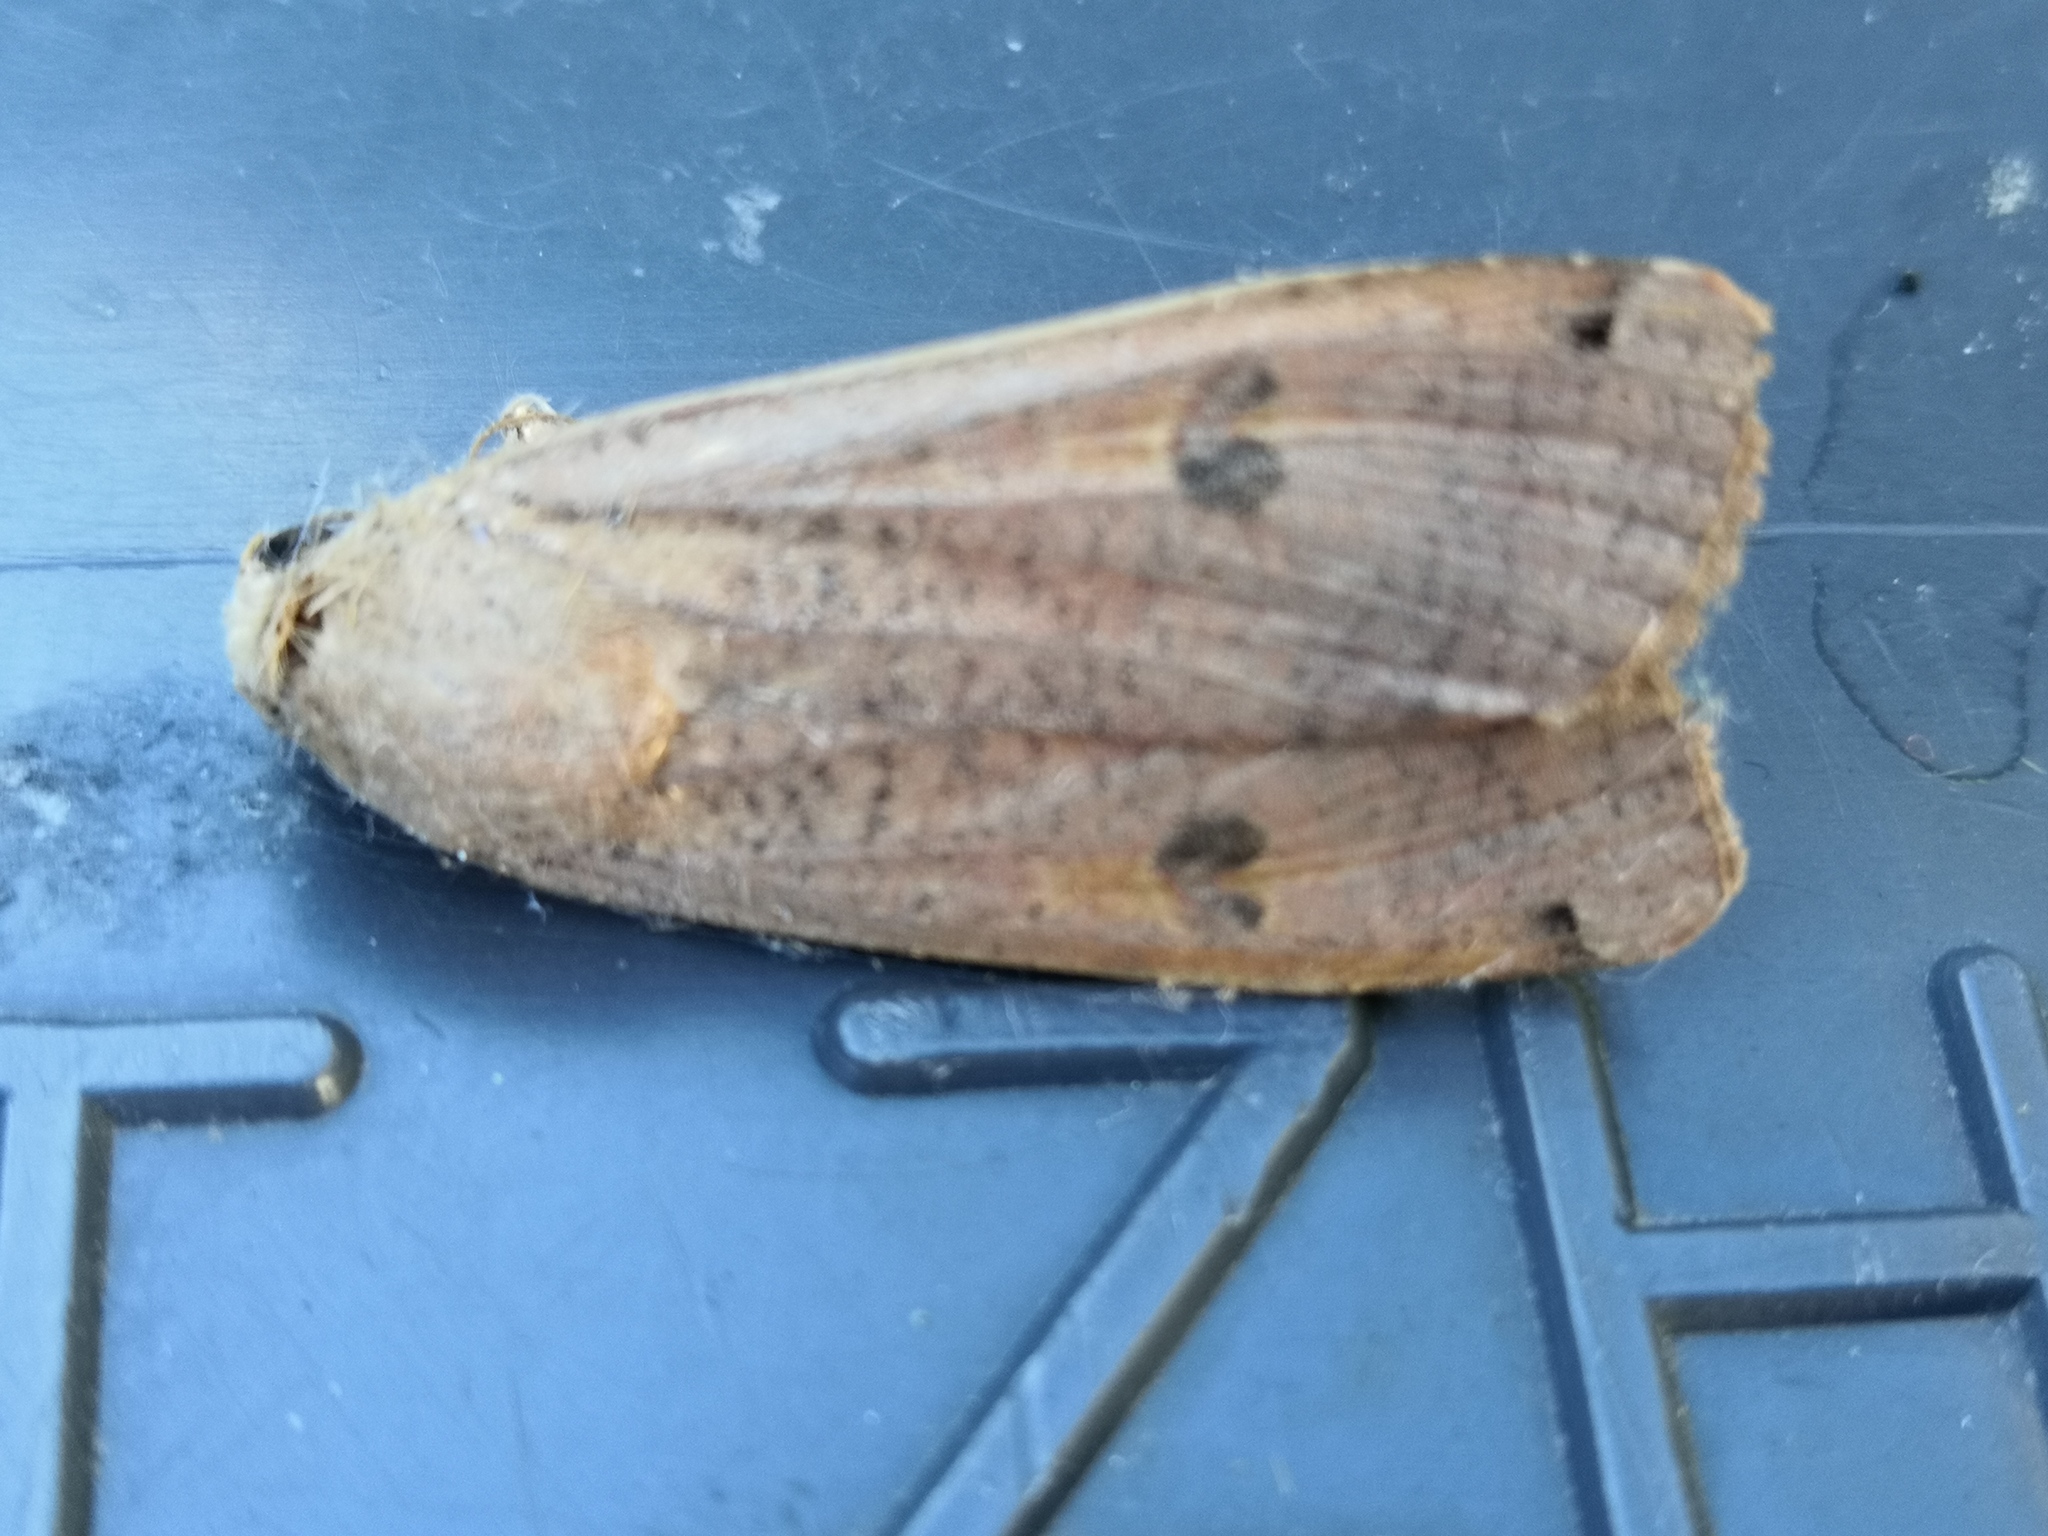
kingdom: Animalia
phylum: Arthropoda
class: Insecta
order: Lepidoptera
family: Noctuidae
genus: Noctua
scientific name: Noctua pronuba
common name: Large yellow underwing
